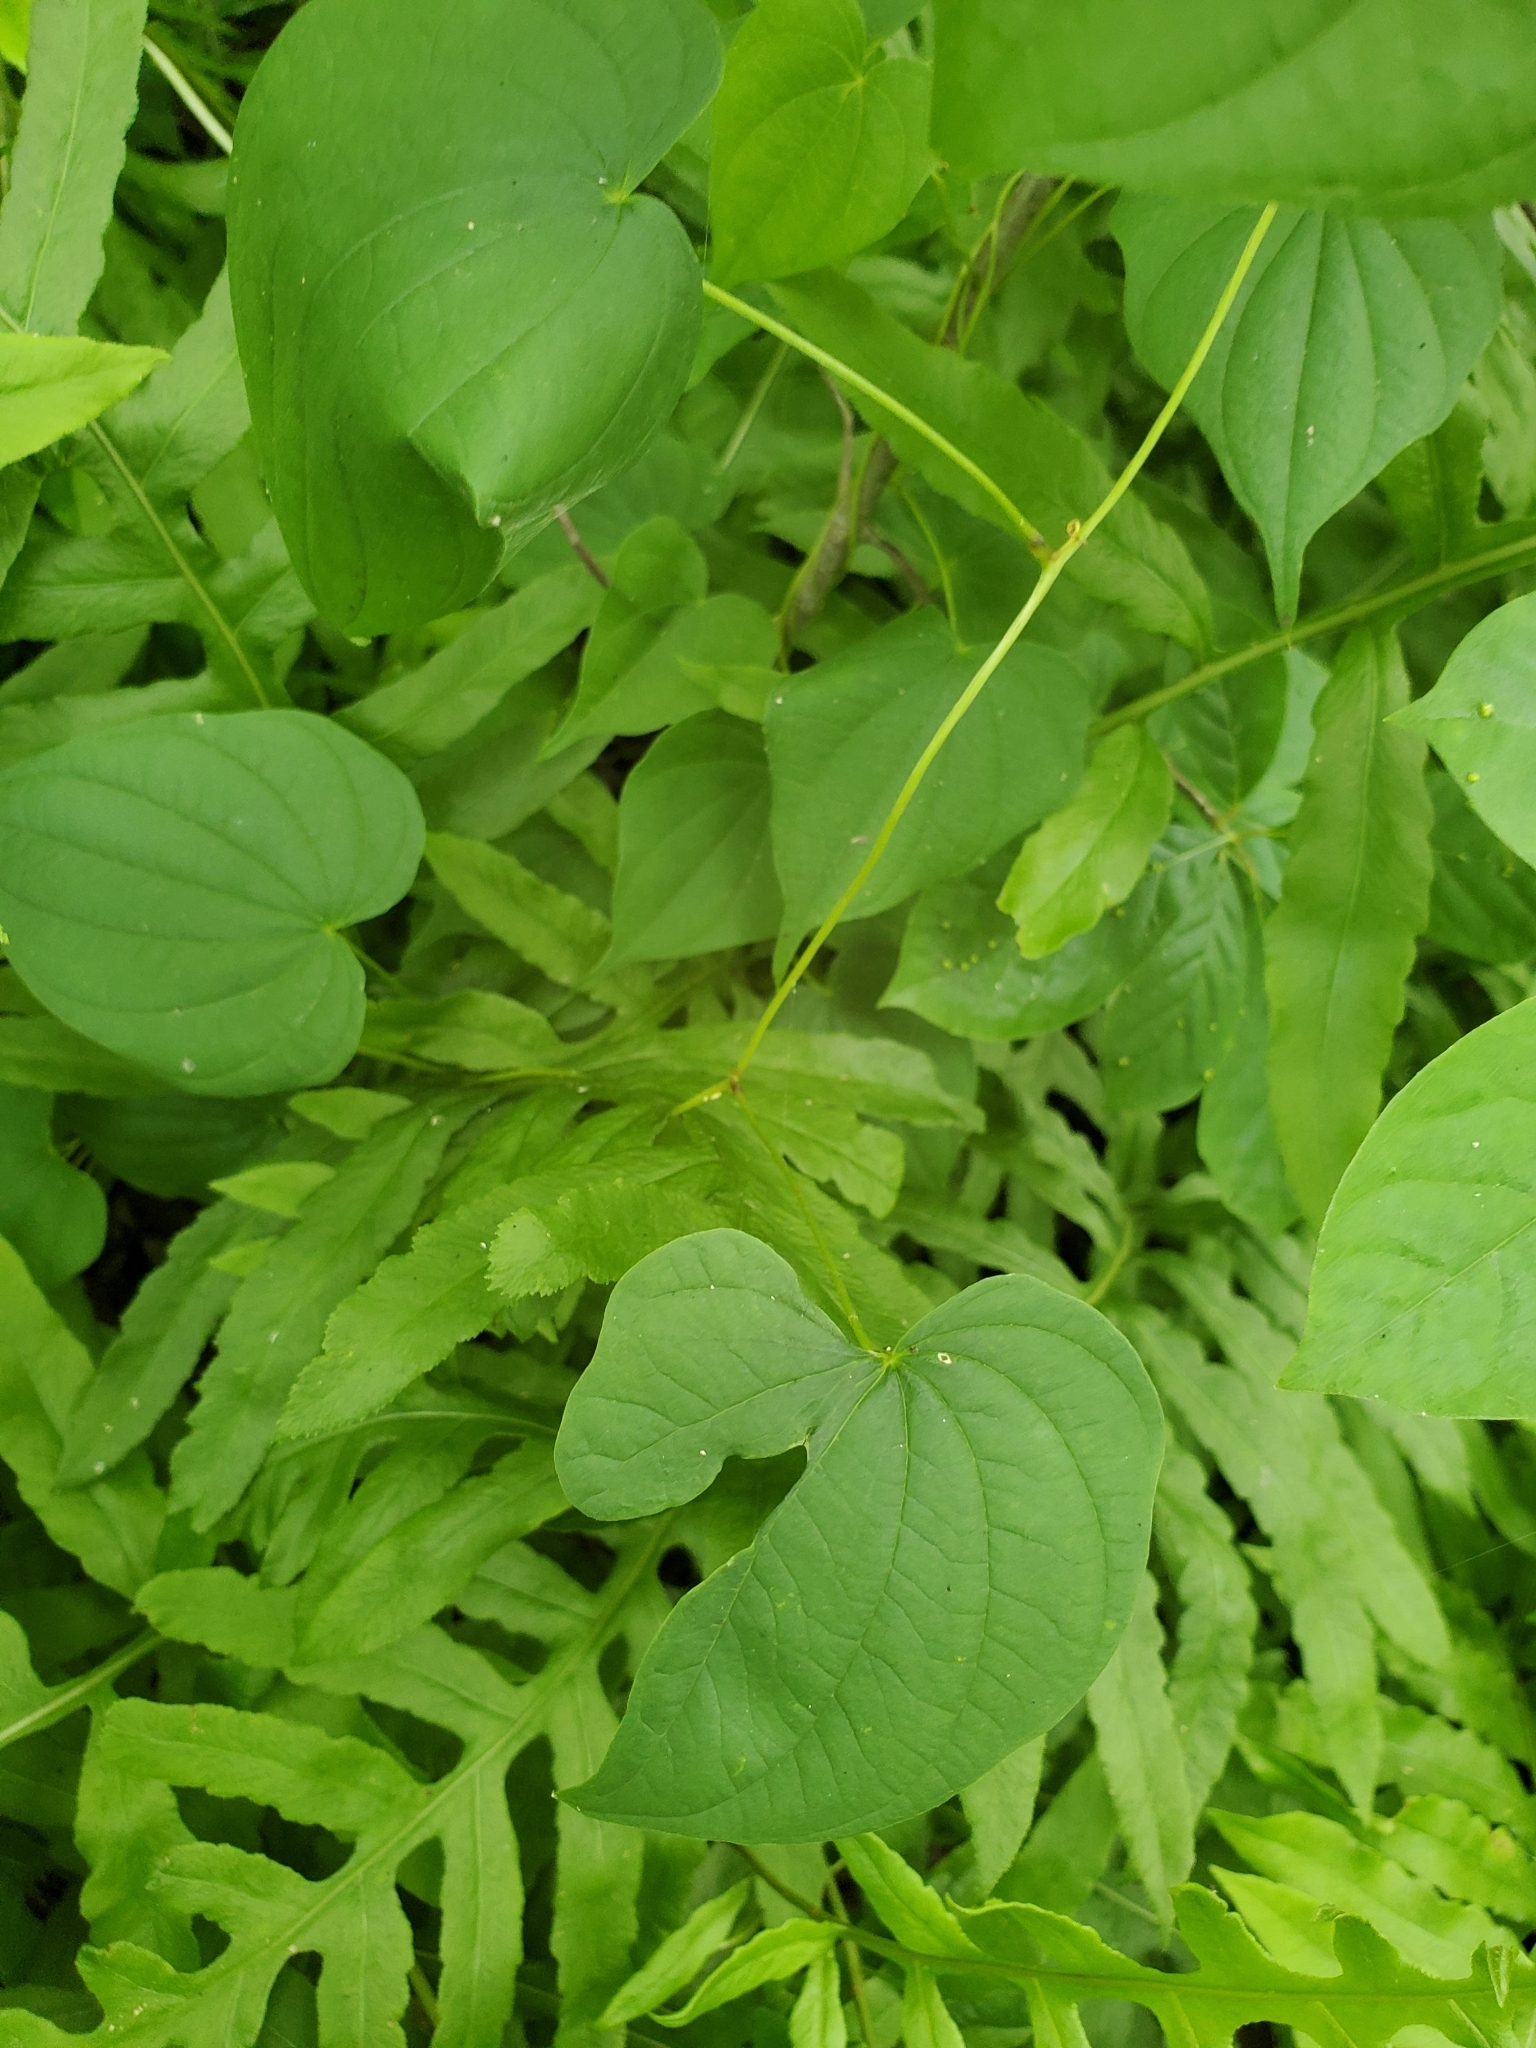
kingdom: Plantae
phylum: Tracheophyta
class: Liliopsida
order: Dioscoreales
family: Dioscoreaceae
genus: Dioscorea
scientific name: Dioscorea villosa
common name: Wild yam
